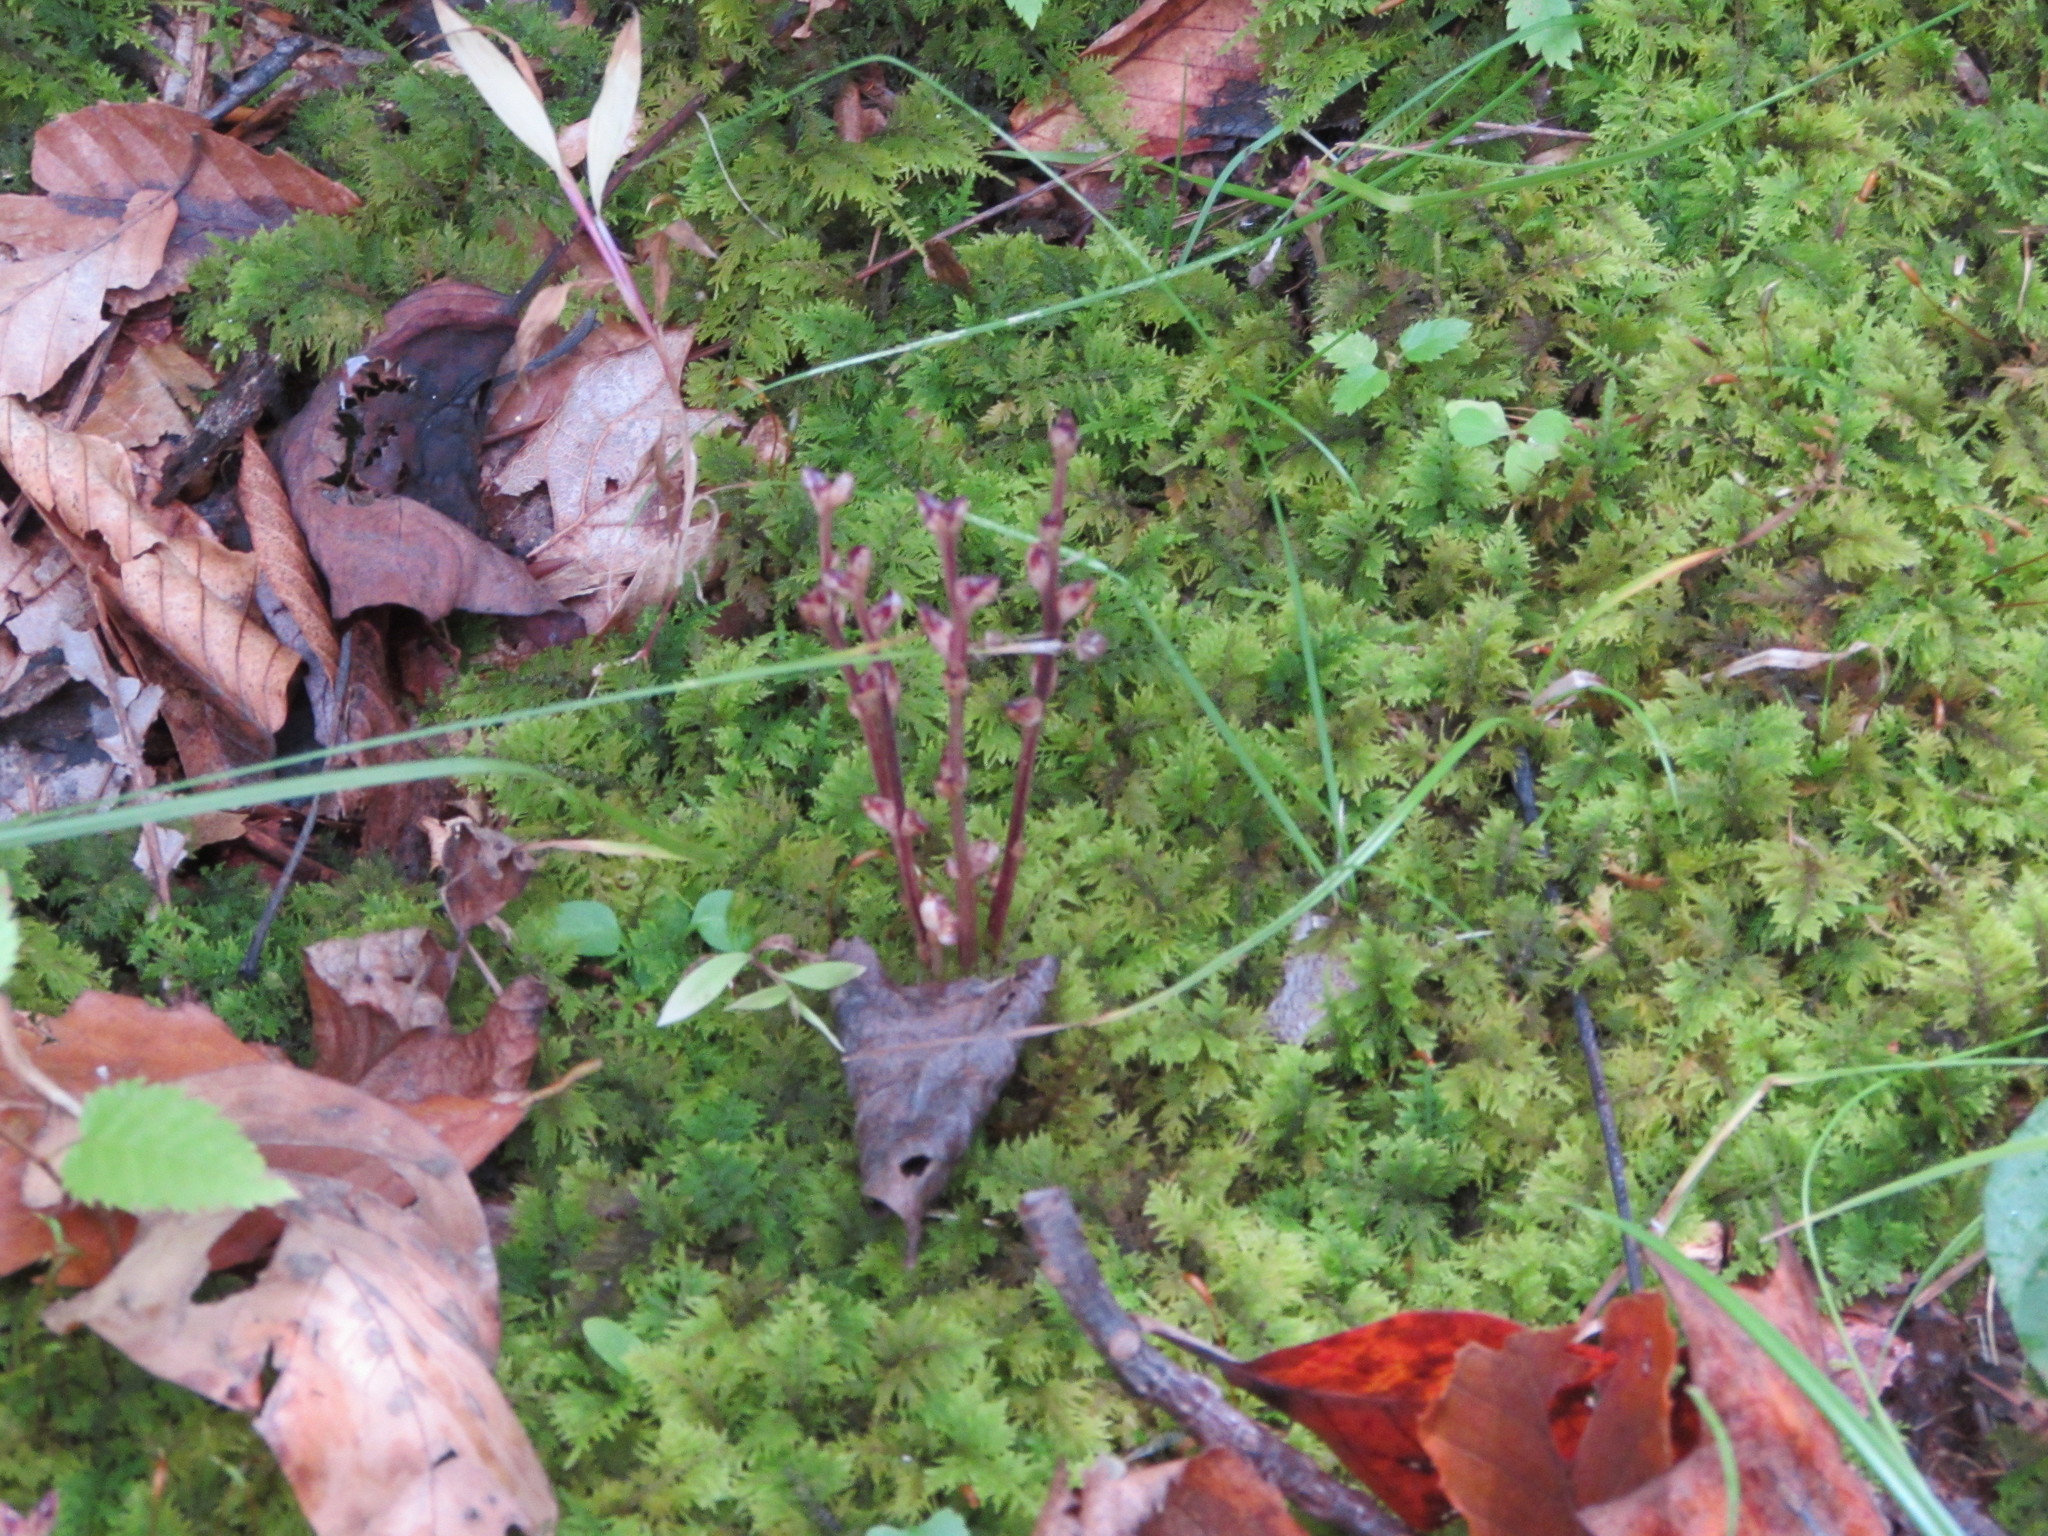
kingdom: Plantae
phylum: Tracheophyta
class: Magnoliopsida
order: Lamiales
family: Orobanchaceae
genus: Epifagus
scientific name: Epifagus virginiana
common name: Beechdrops
